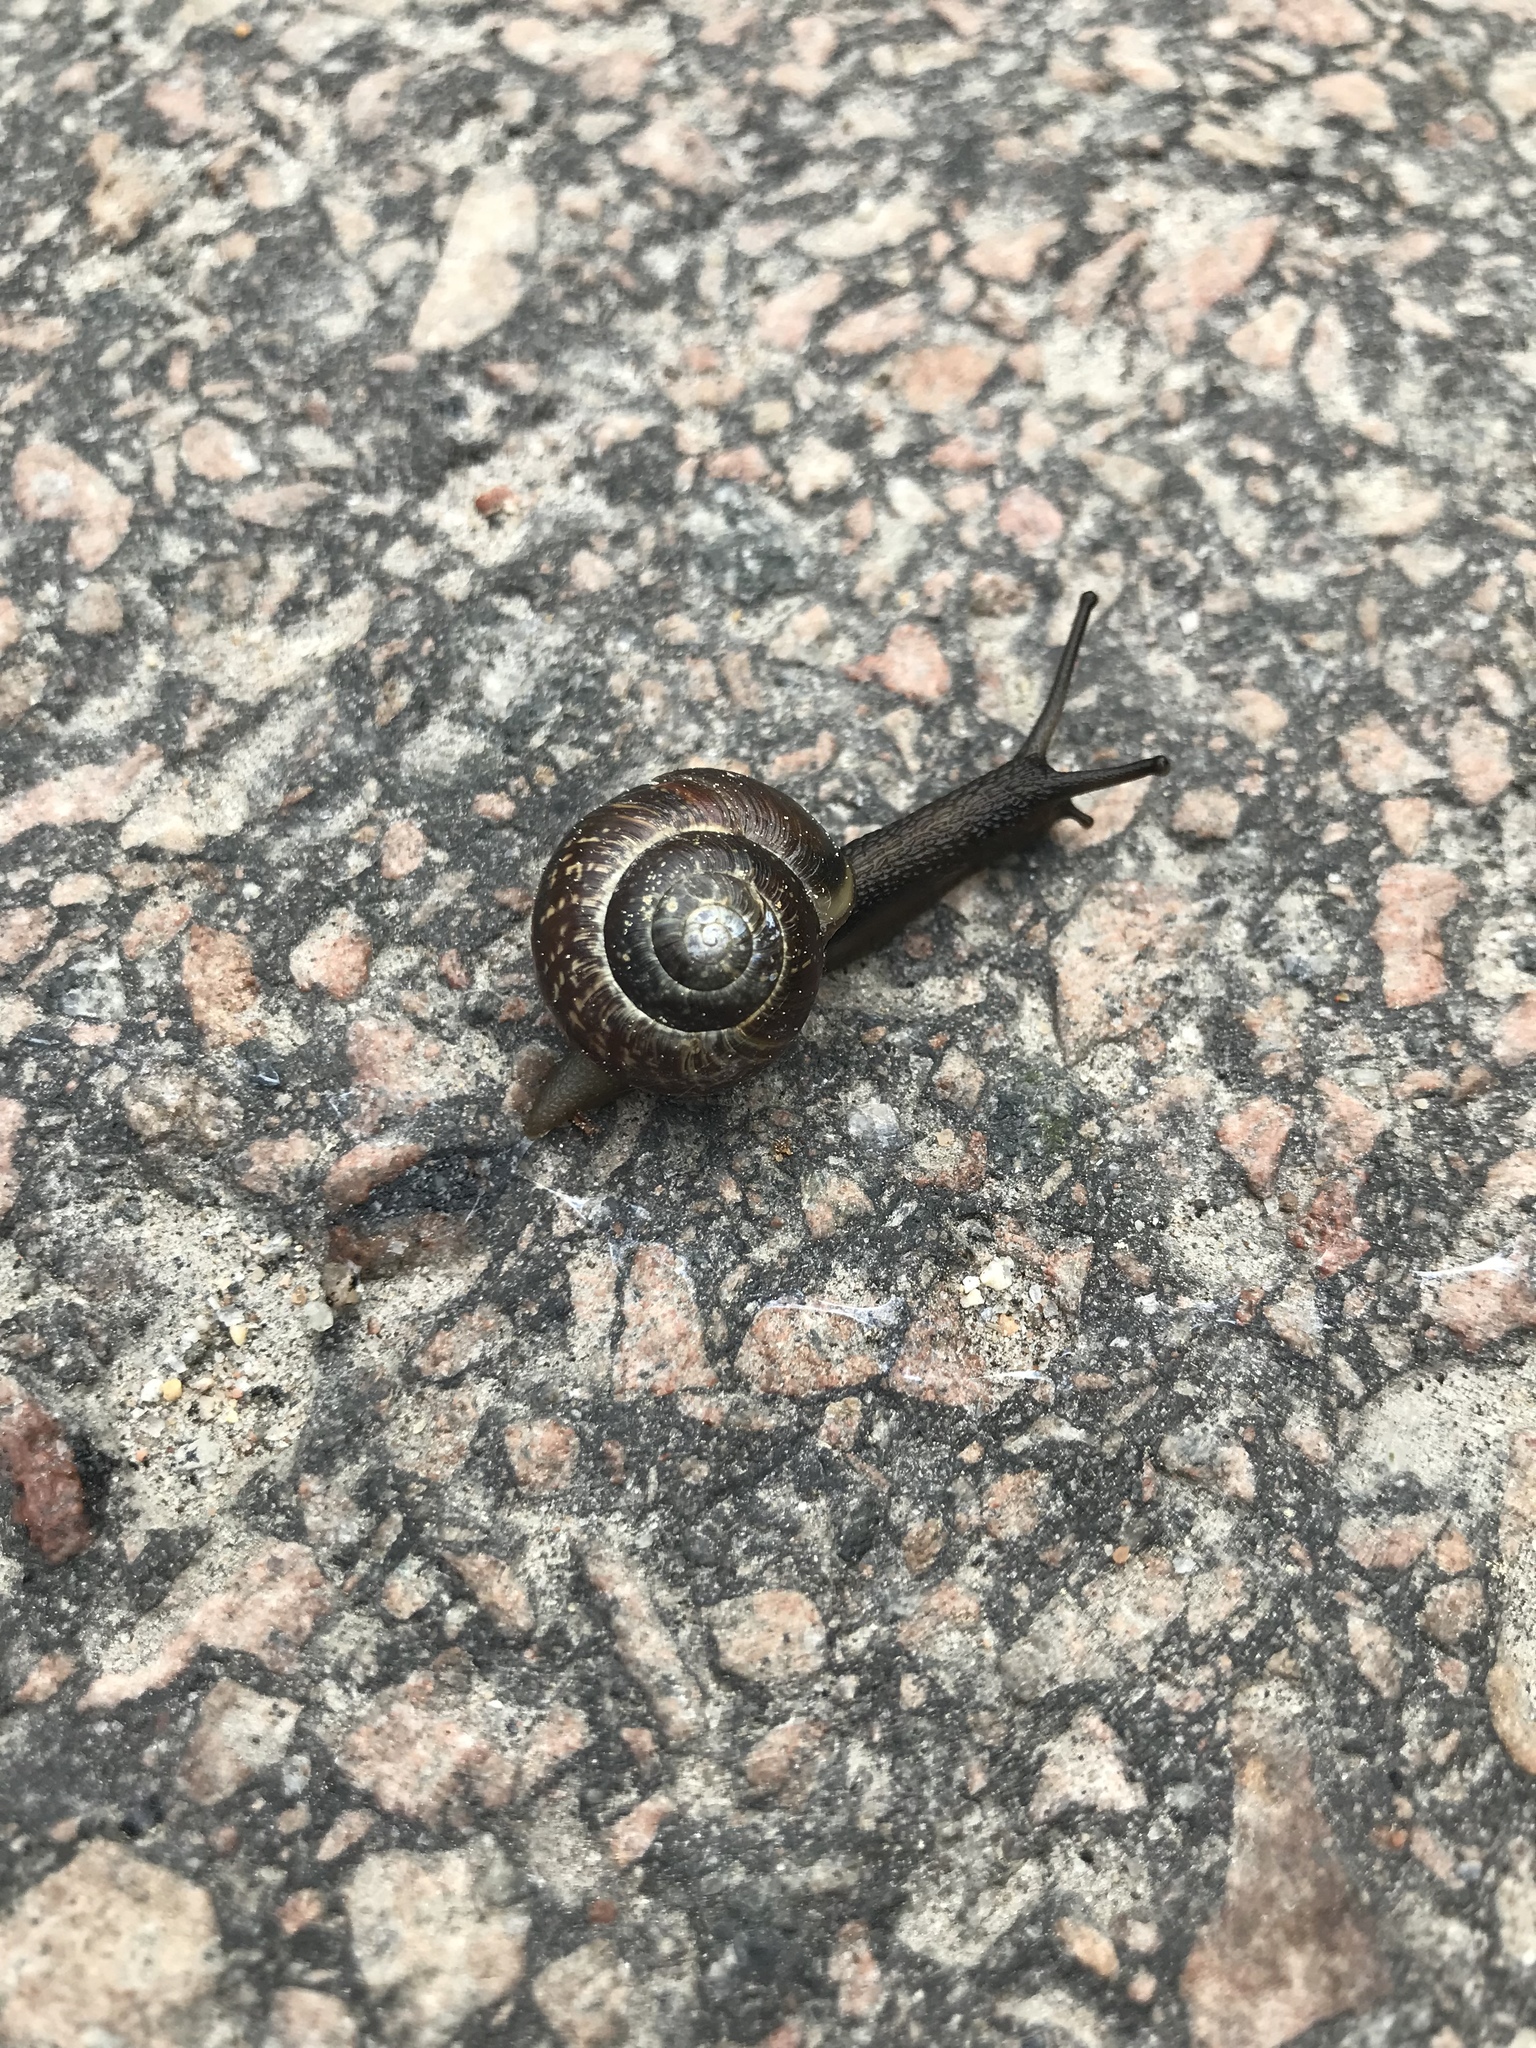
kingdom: Animalia
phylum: Mollusca
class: Gastropoda
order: Stylommatophora
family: Helicidae
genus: Arianta
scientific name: Arianta arbustorum
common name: Copse snail
